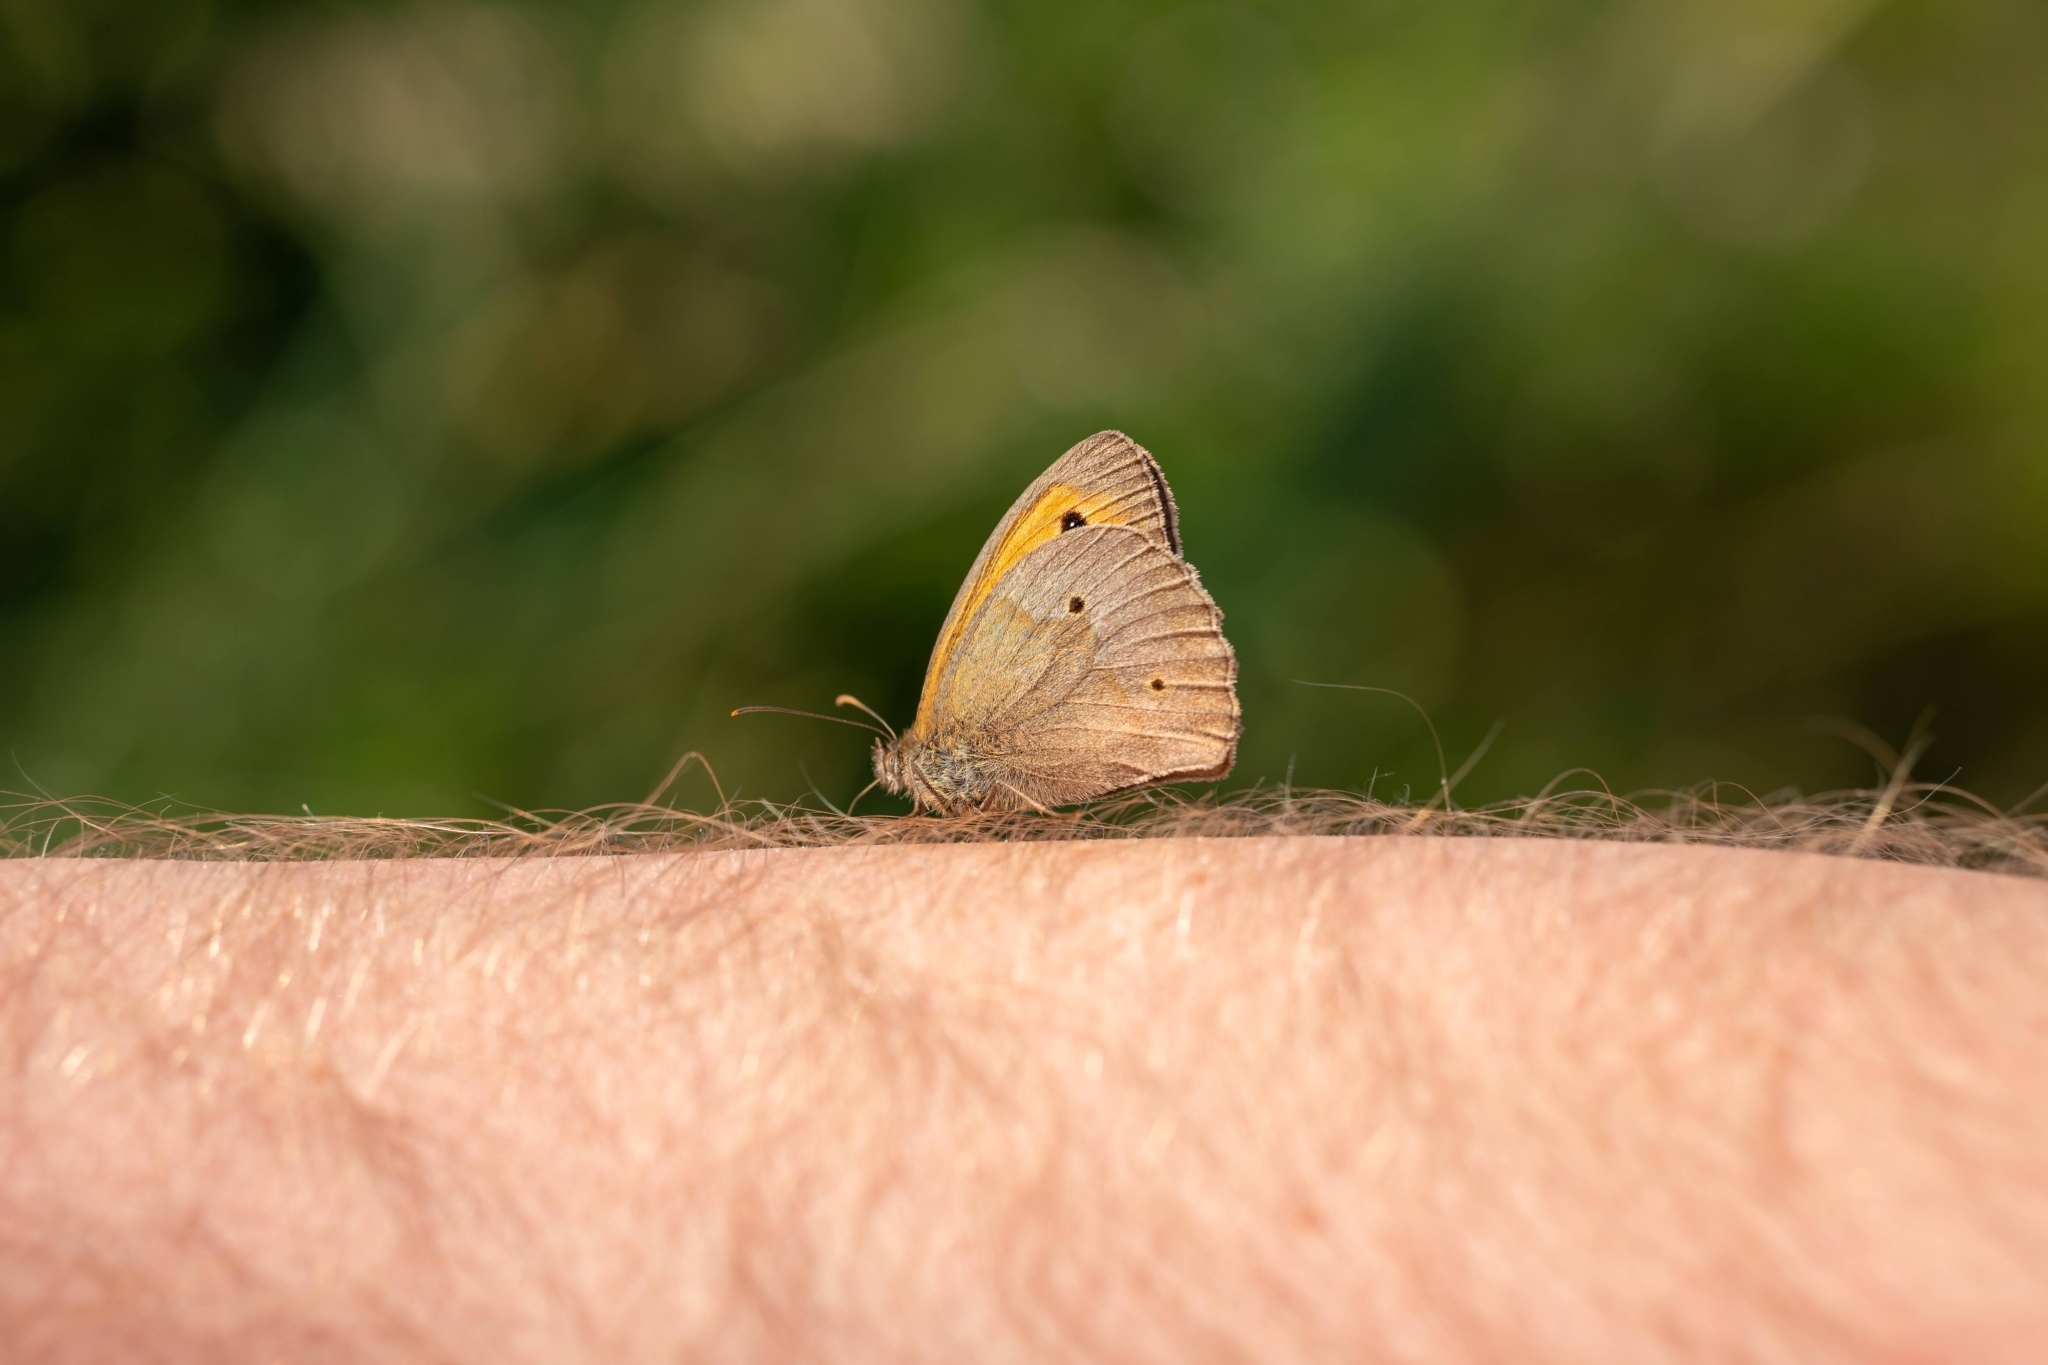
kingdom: Animalia
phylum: Arthropoda
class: Insecta
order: Lepidoptera
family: Nymphalidae
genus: Maniola
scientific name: Maniola jurtina
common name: Meadow brown
